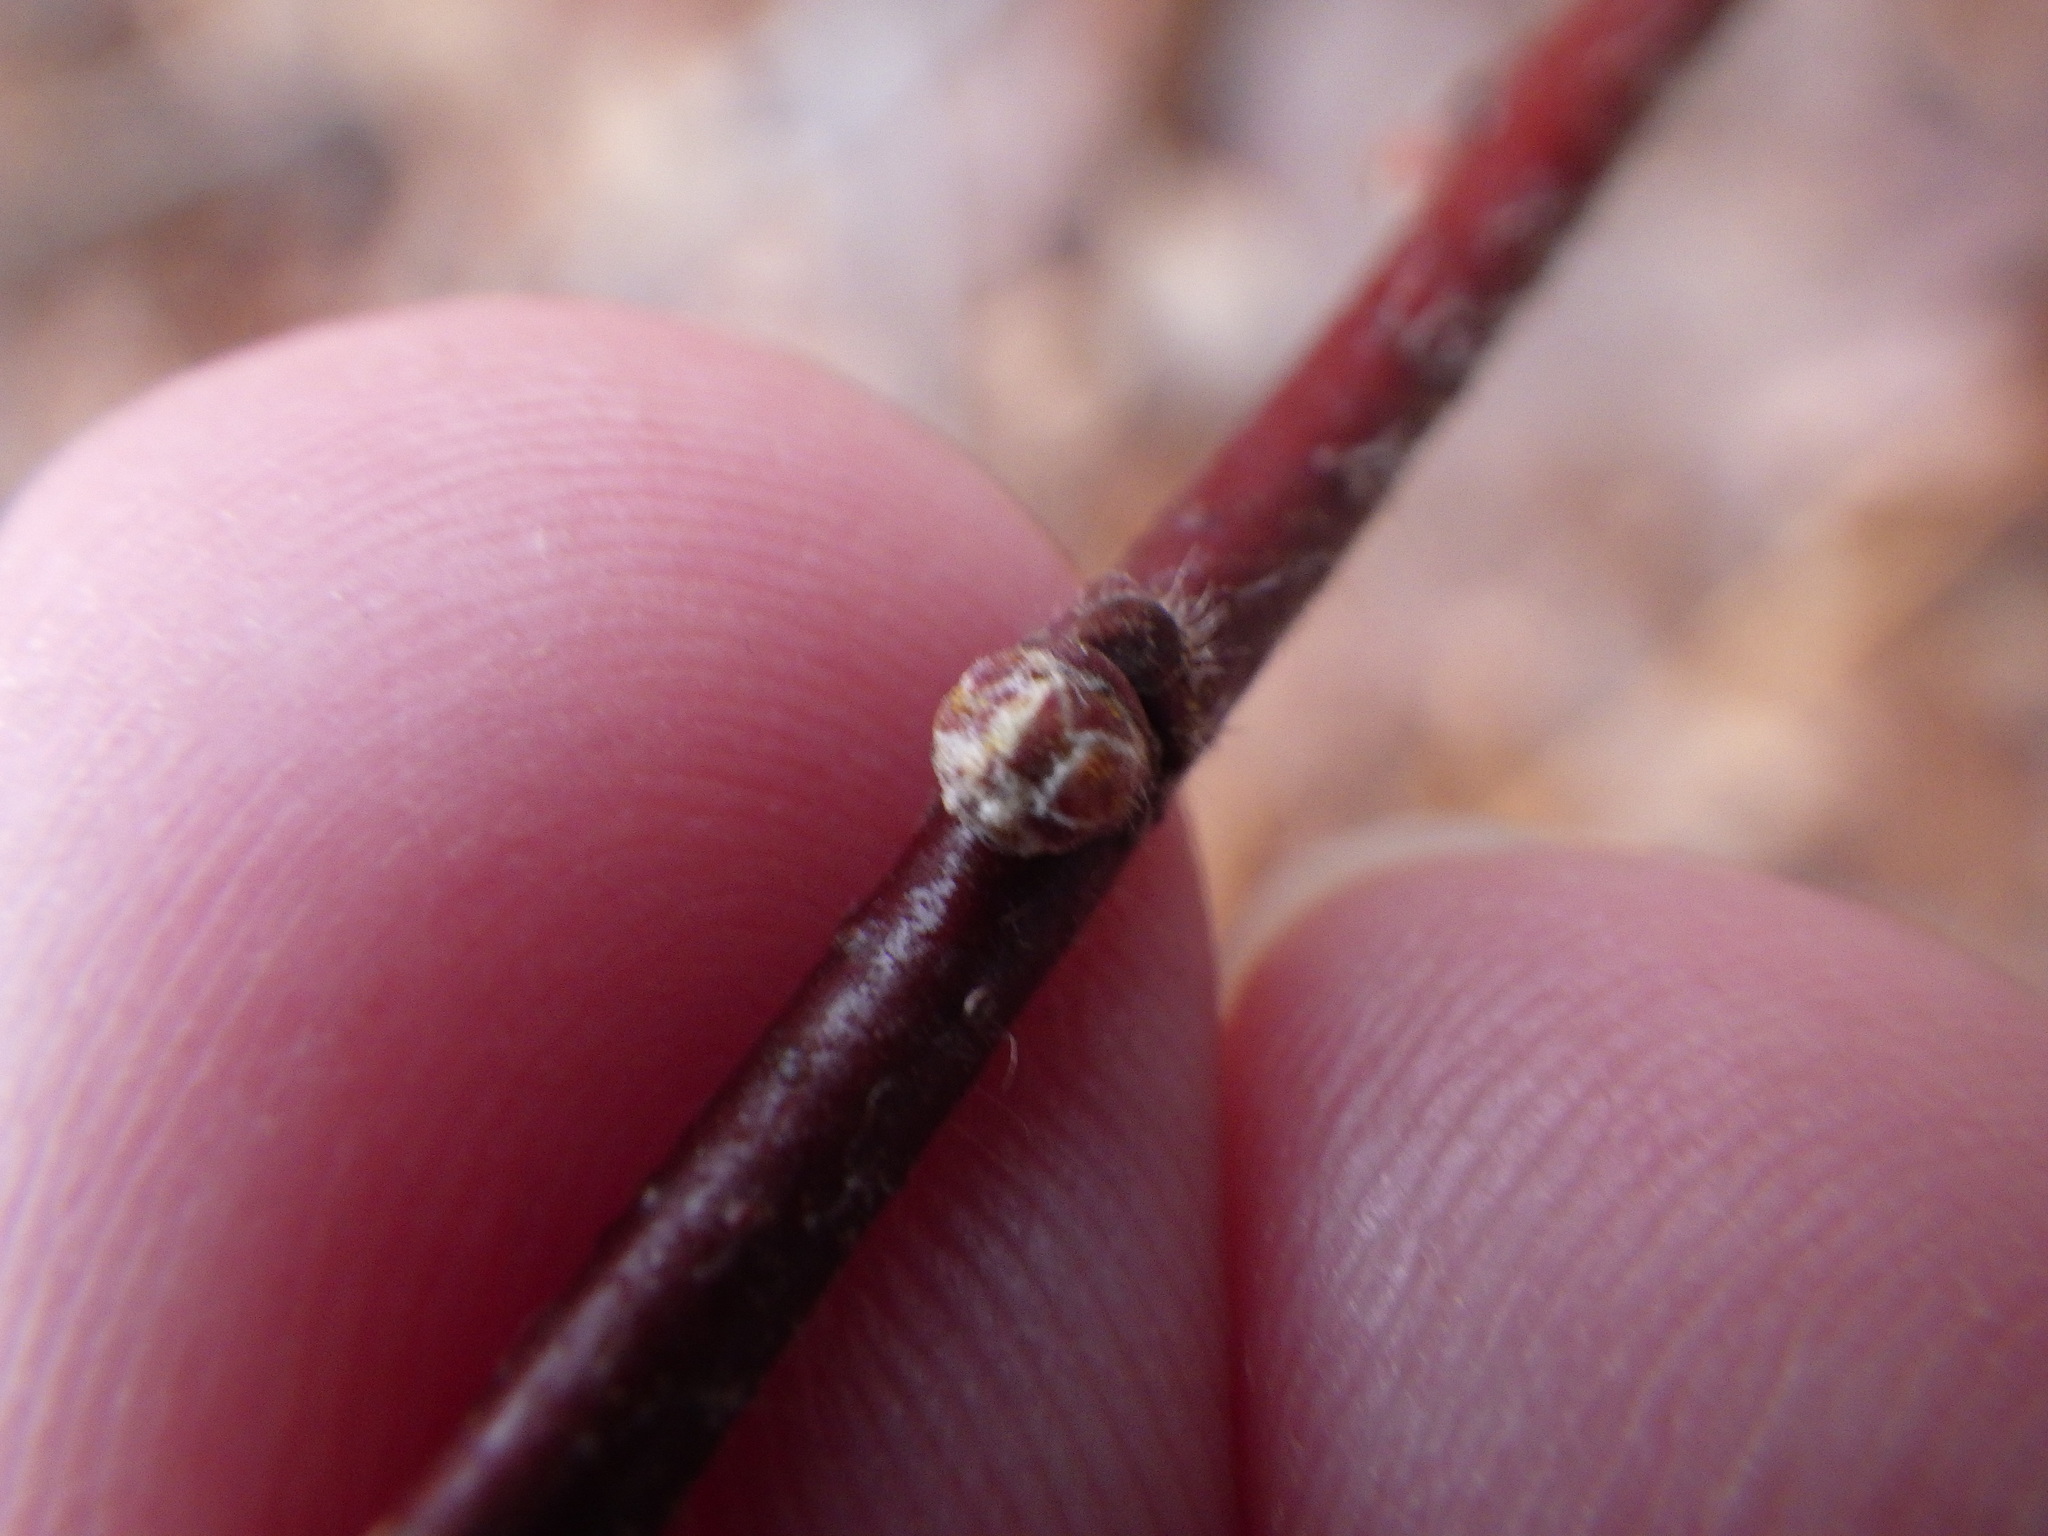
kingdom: Plantae
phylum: Tracheophyta
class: Magnoliopsida
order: Fagales
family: Myricaceae
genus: Comptonia
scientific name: Comptonia peregrina
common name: Sweet-fern
